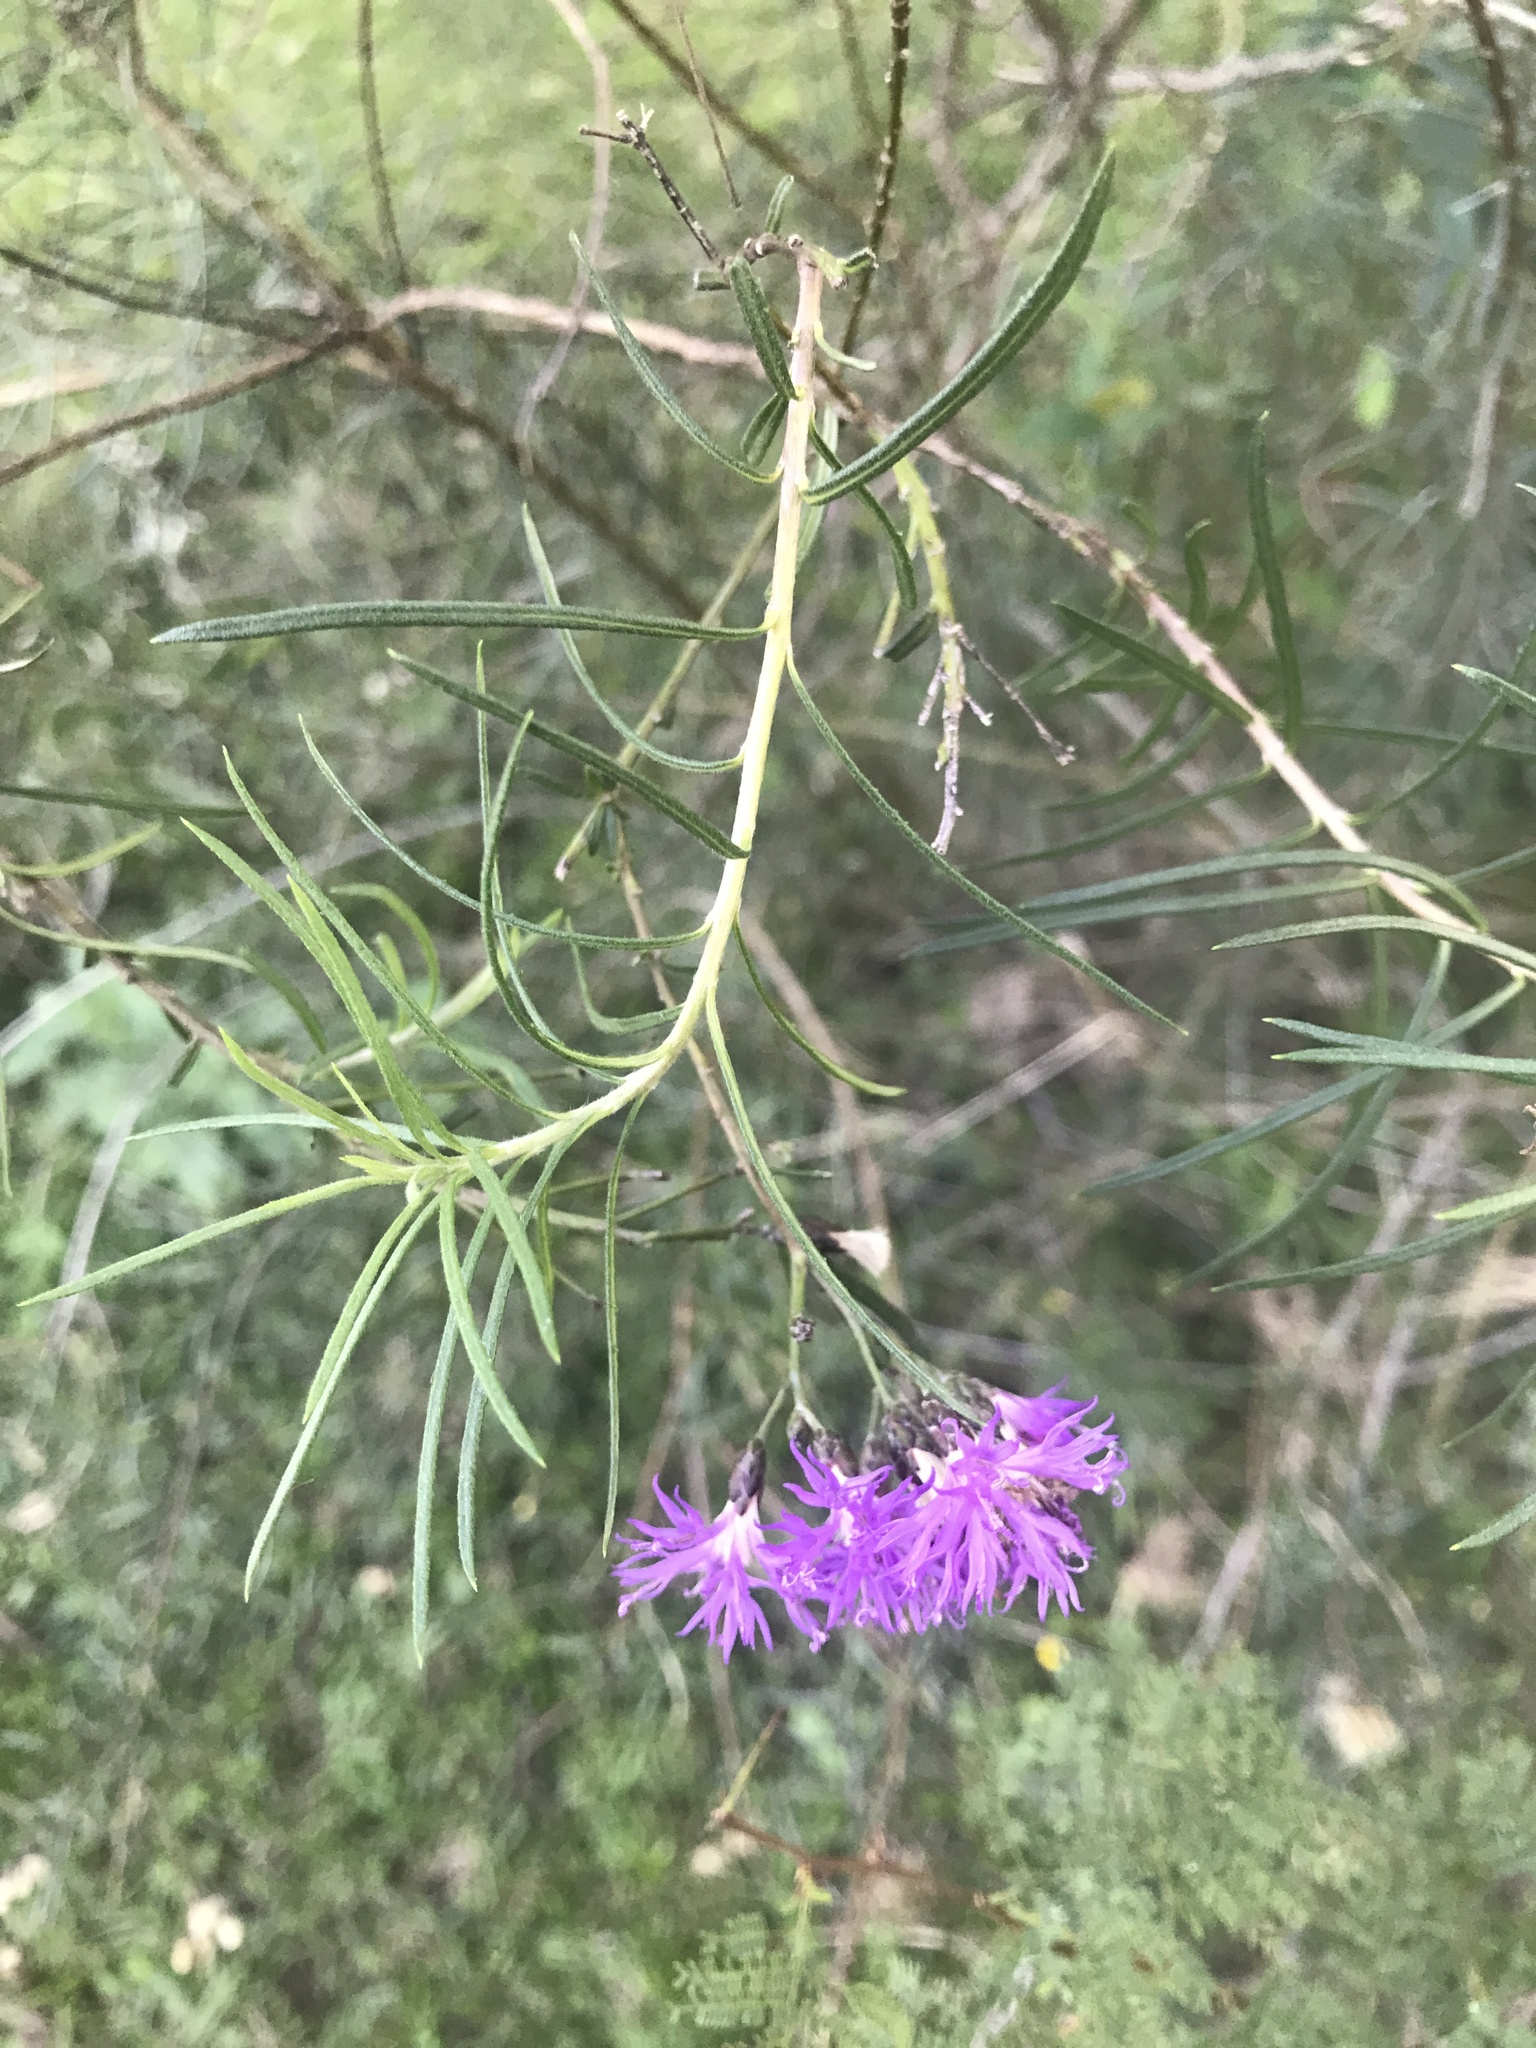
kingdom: Plantae
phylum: Tracheophyta
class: Magnoliopsida
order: Asterales
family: Asteraceae
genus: Vernonanthura
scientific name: Vernonanthura nudiflora
